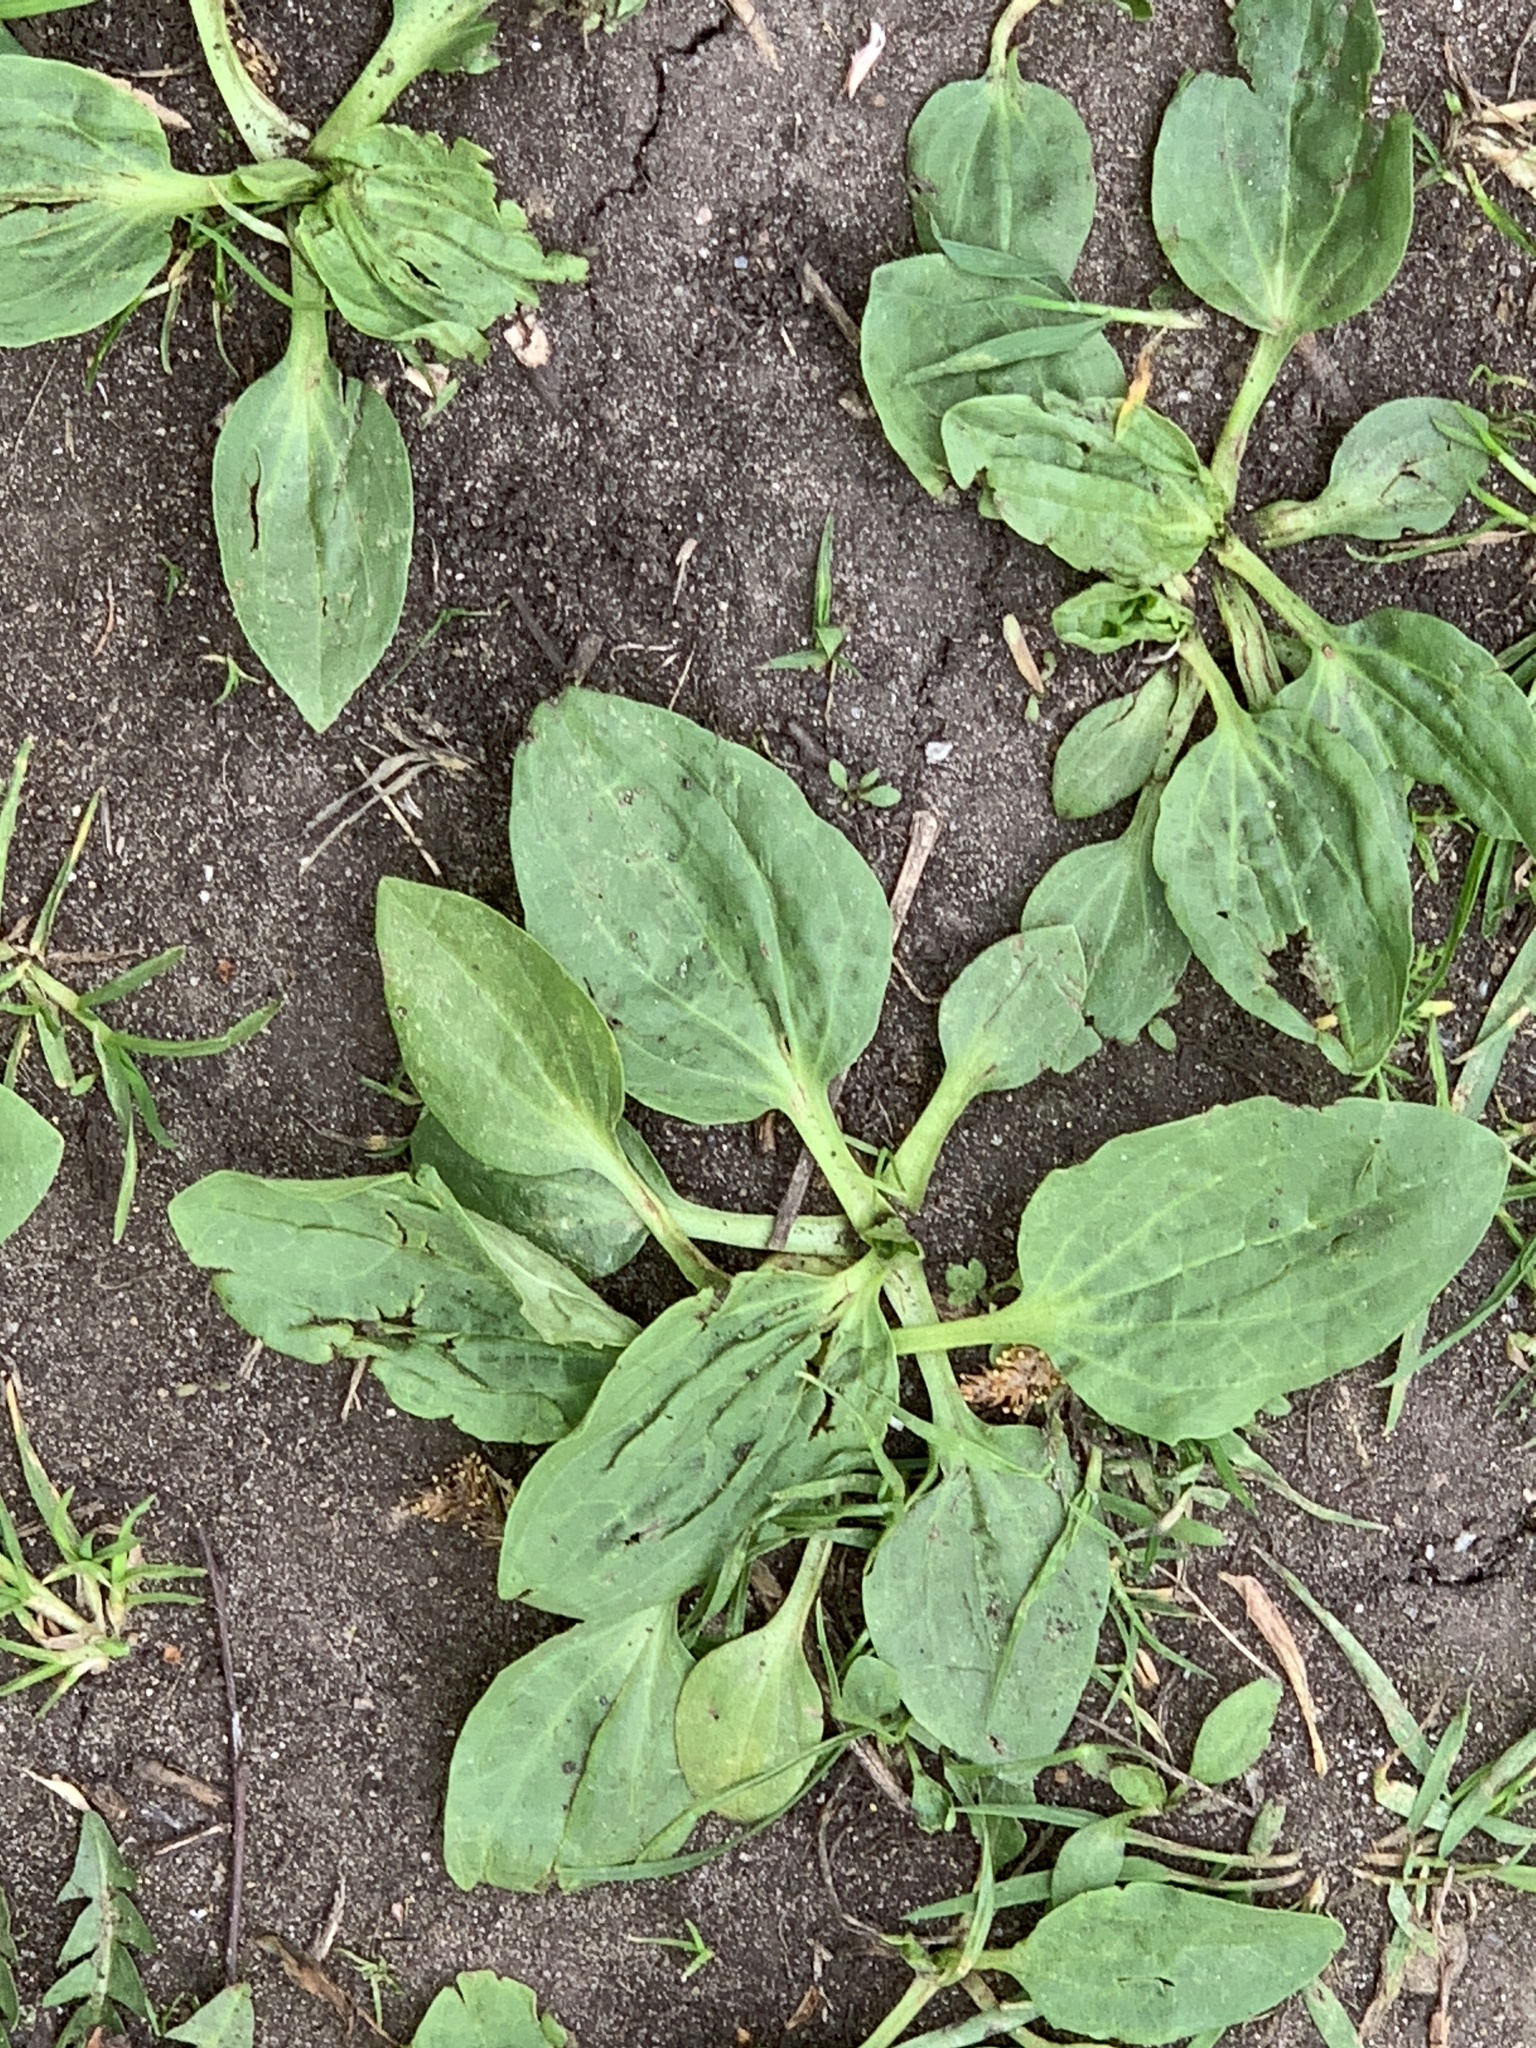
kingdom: Plantae
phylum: Tracheophyta
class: Magnoliopsida
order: Lamiales
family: Plantaginaceae
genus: Plantago
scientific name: Plantago major
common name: Common plantain
